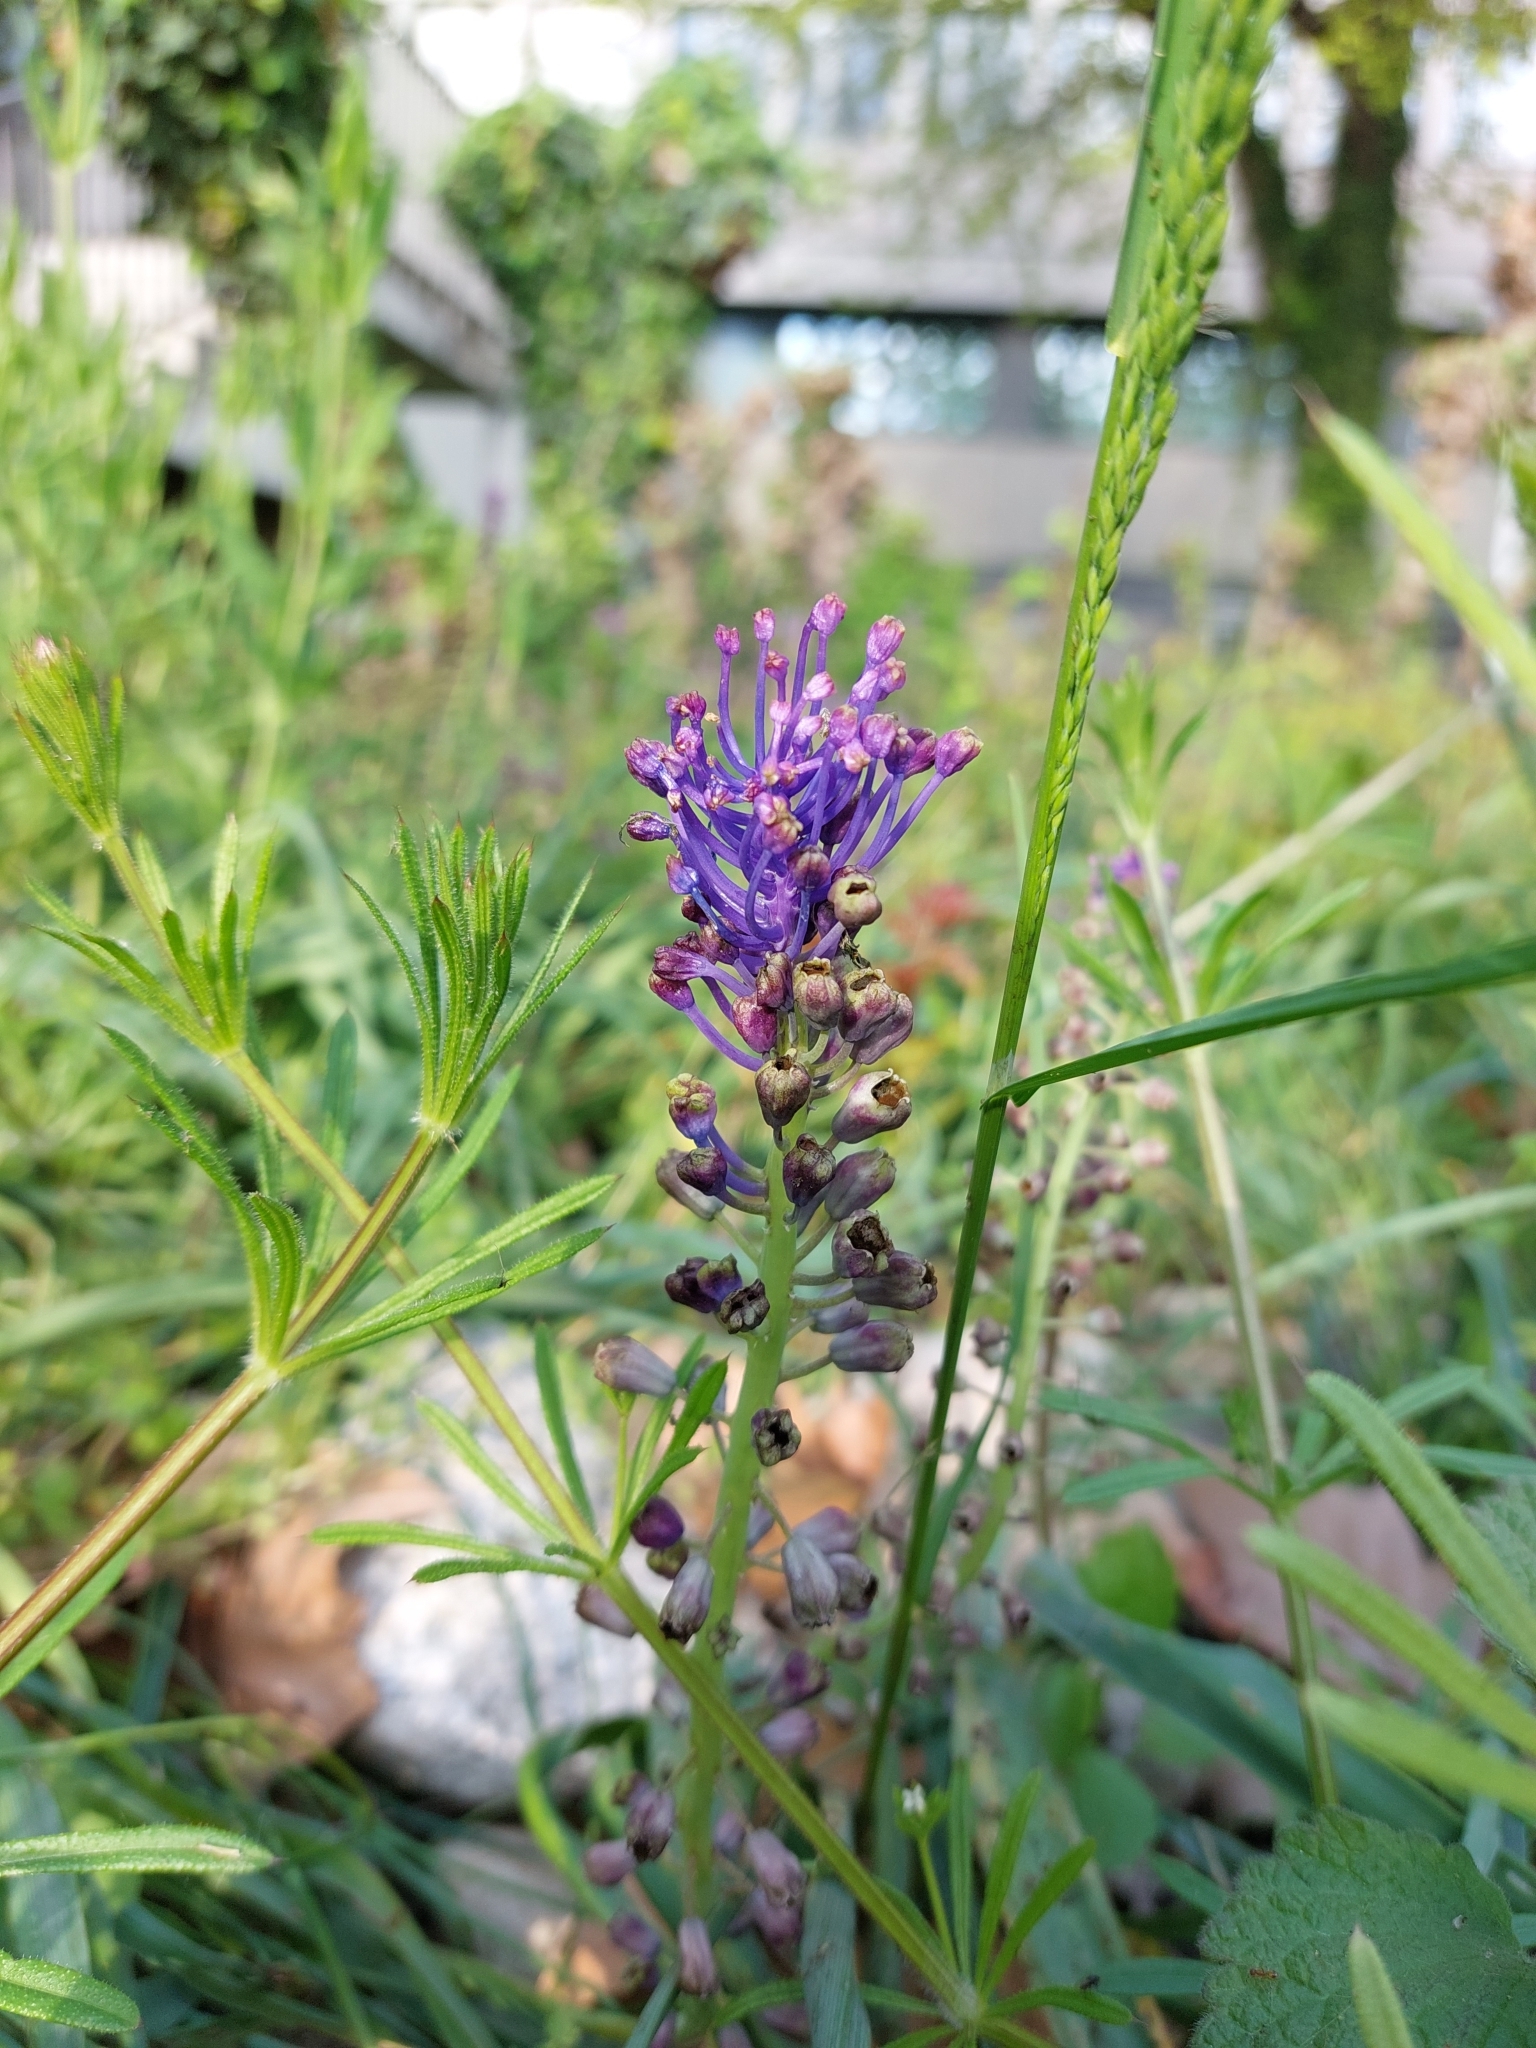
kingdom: Plantae
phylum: Tracheophyta
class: Liliopsida
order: Asparagales
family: Asparagaceae
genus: Muscari
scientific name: Muscari comosum
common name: Tassel hyacinth
